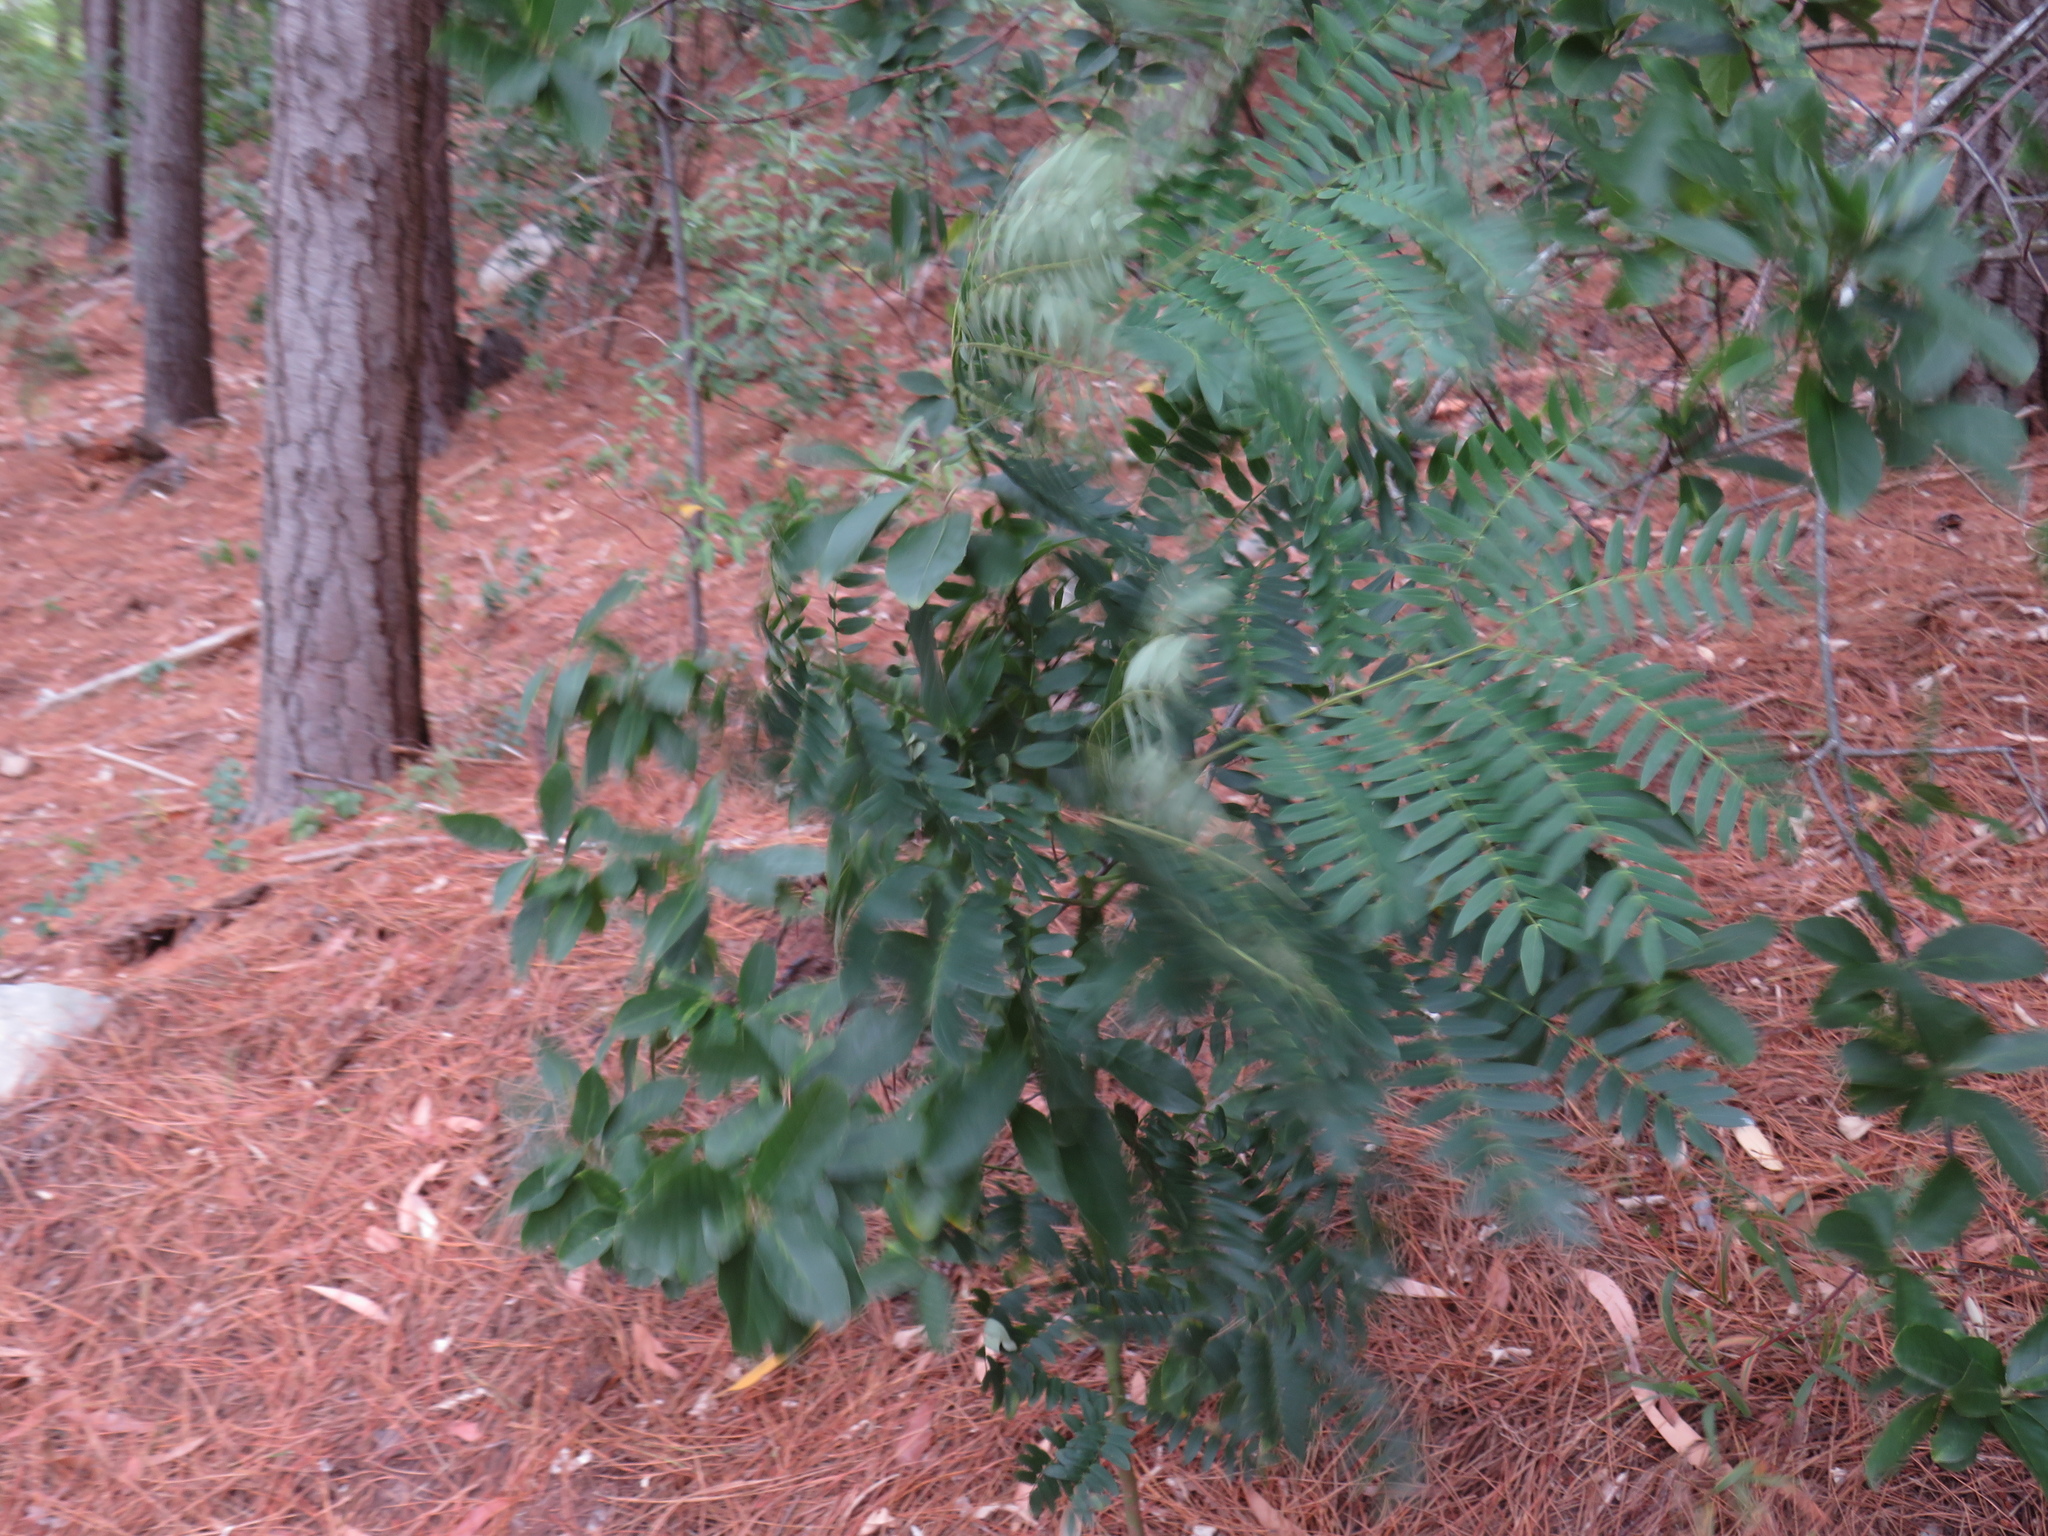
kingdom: Plantae
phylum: Tracheophyta
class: Magnoliopsida
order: Fabales
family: Fabaceae
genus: Acacia
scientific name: Acacia elata
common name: Cedar wattle
